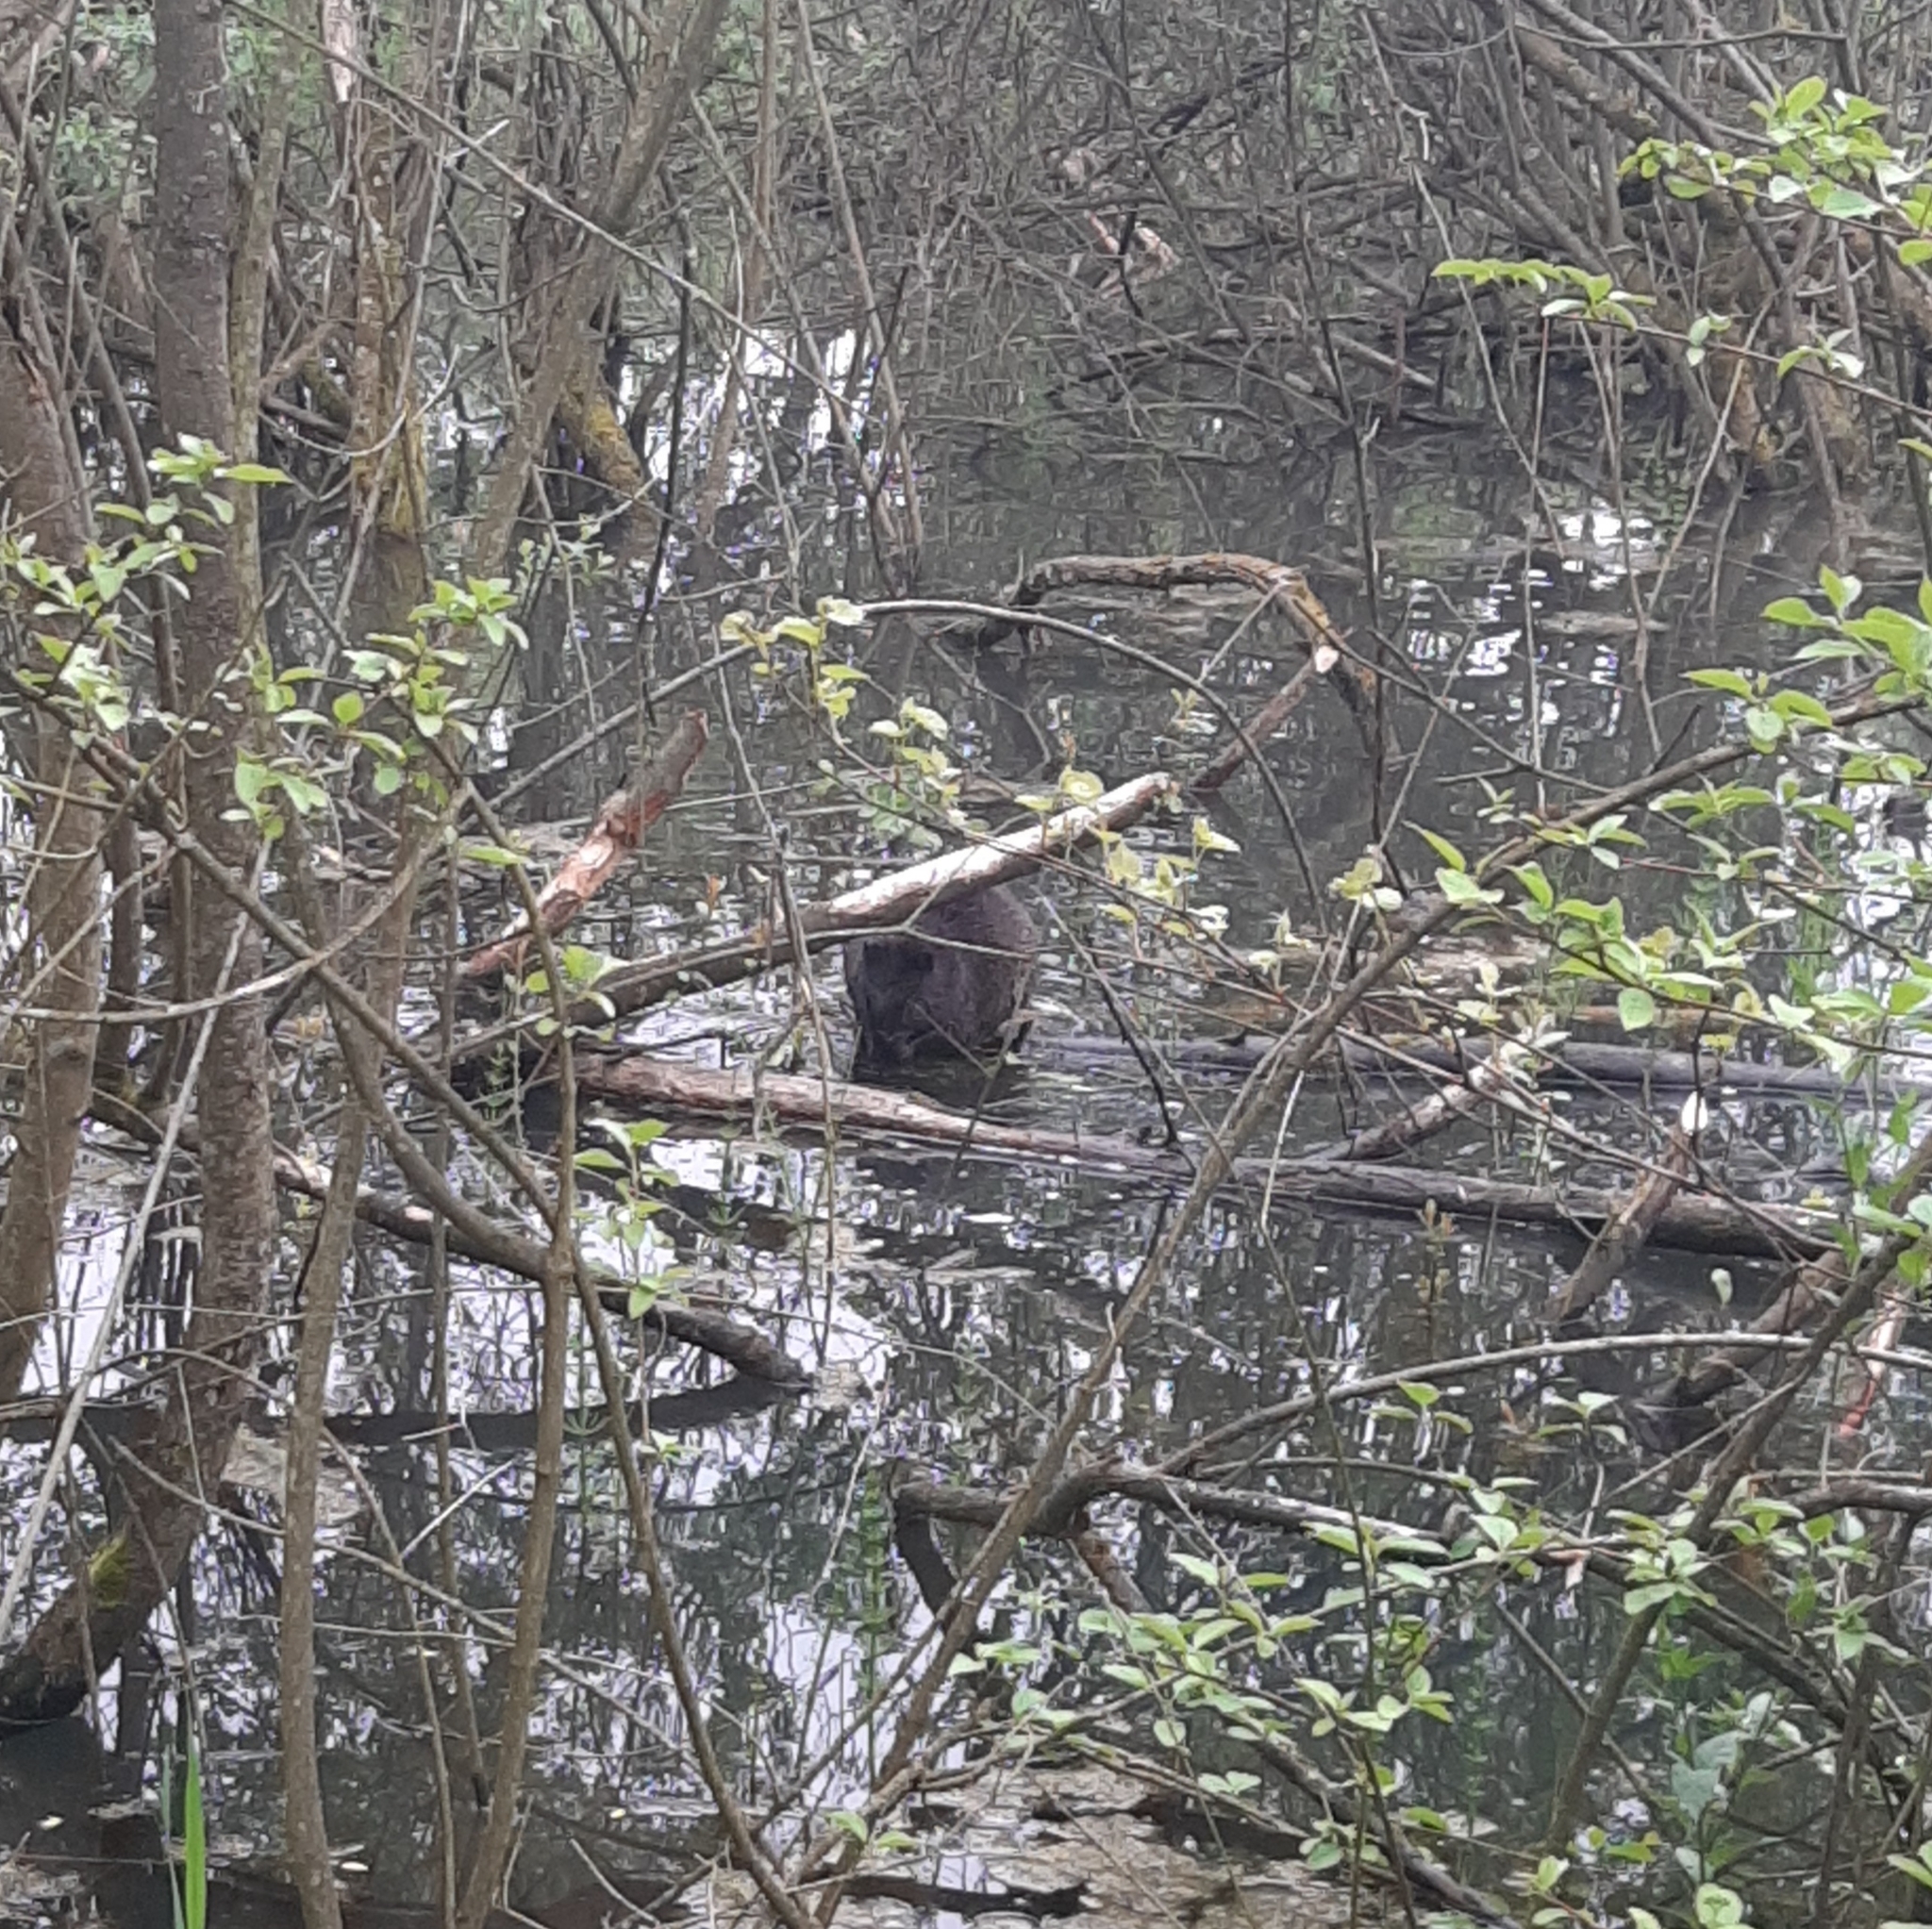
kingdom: Animalia
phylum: Chordata
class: Mammalia
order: Rodentia
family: Castoridae
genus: Castor
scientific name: Castor fiber
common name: Eurasian beaver
